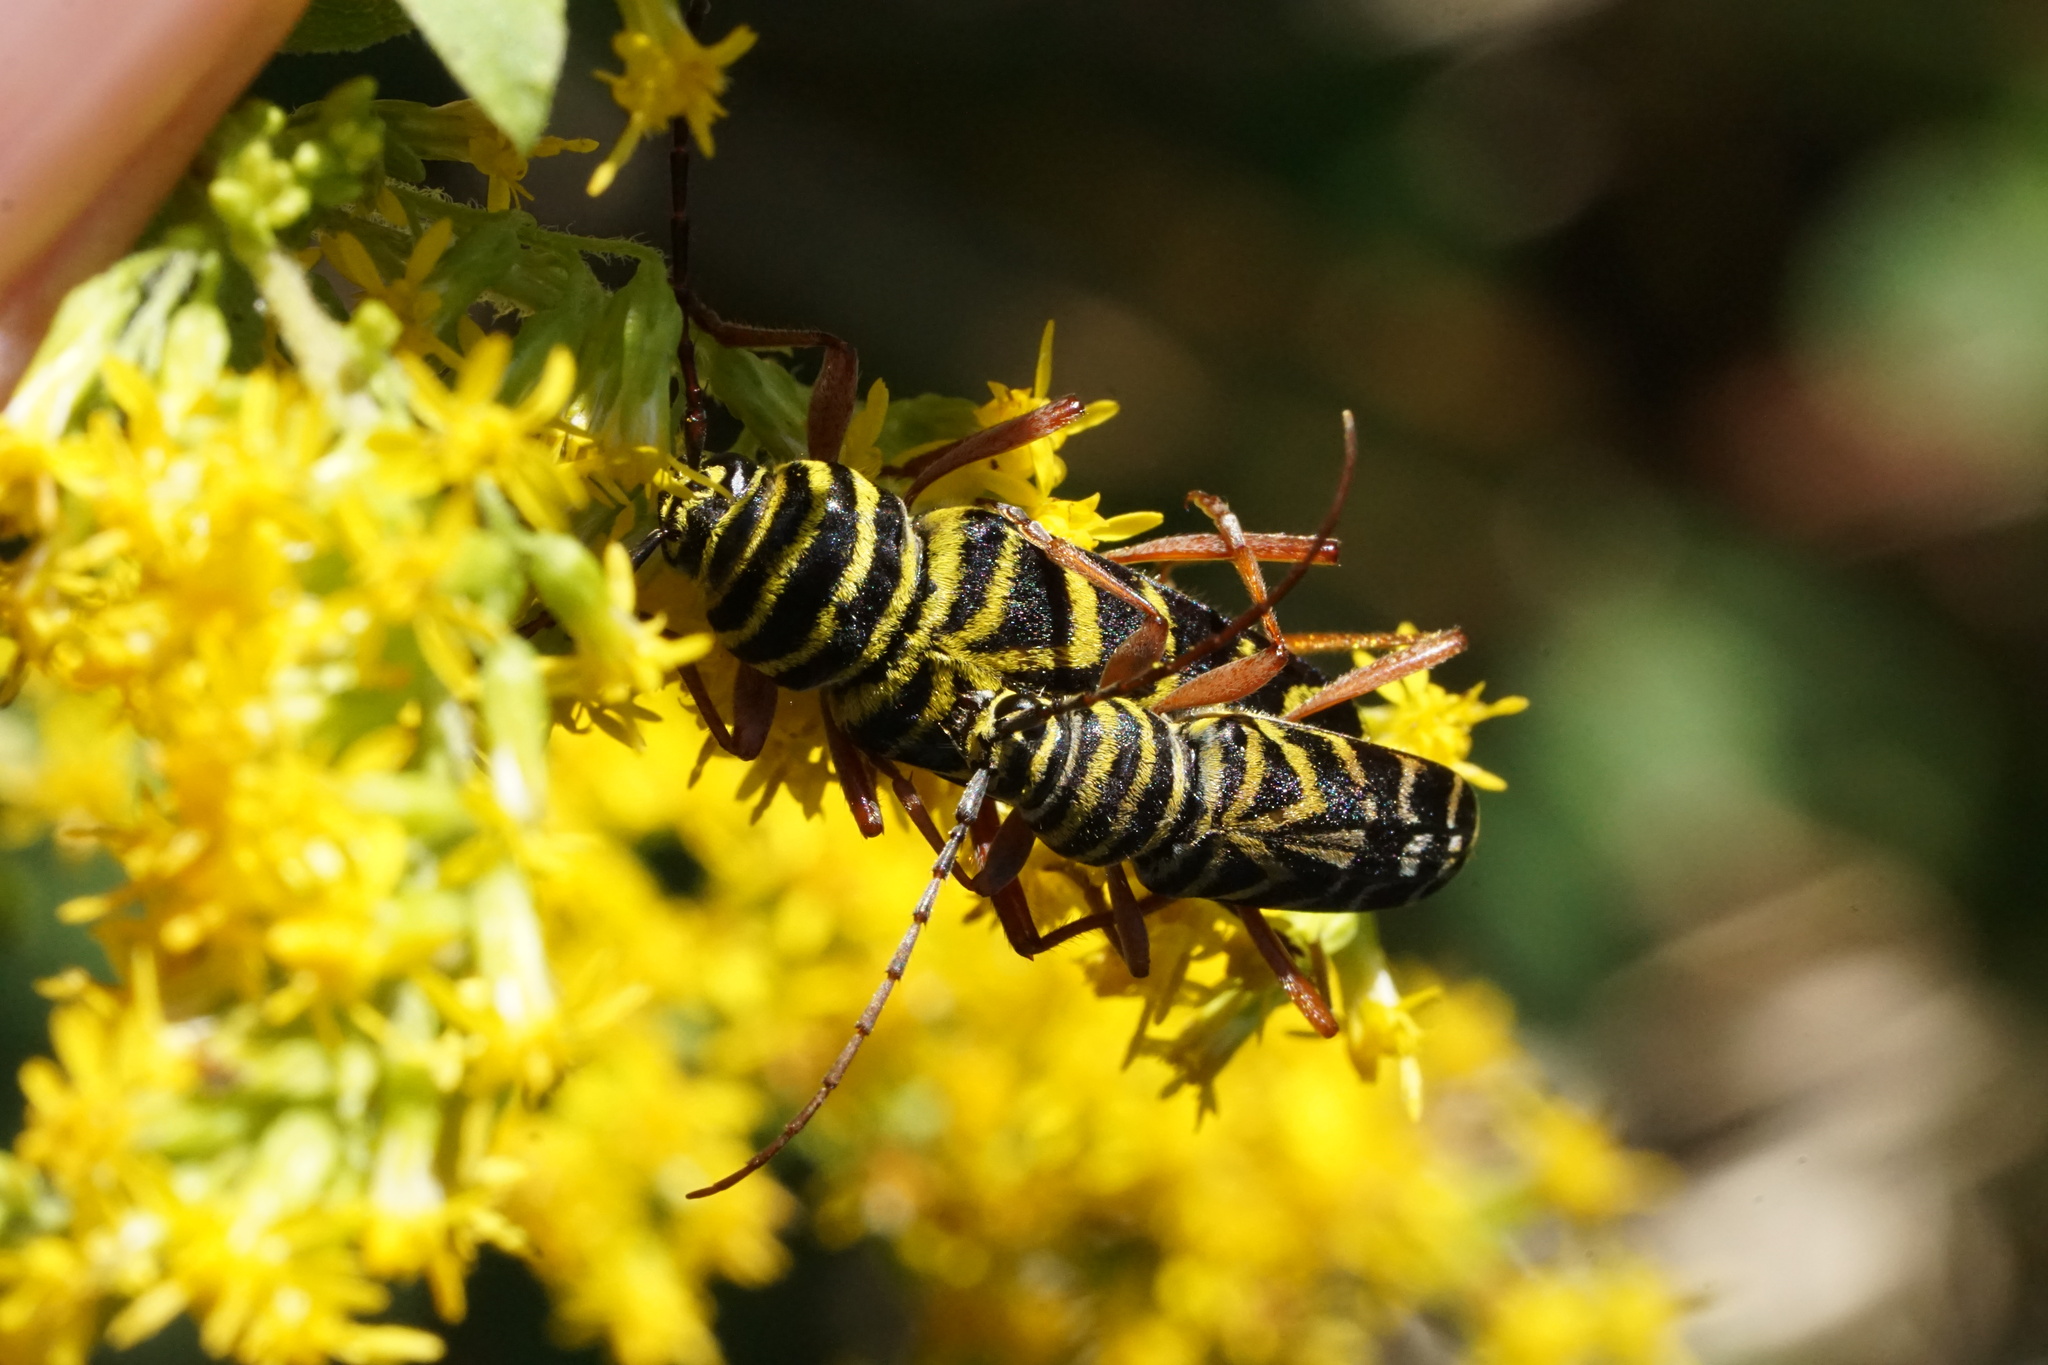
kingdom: Animalia
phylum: Arthropoda
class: Insecta
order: Coleoptera
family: Cerambycidae
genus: Megacyllene
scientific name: Megacyllene robiniae
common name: Locust borer
